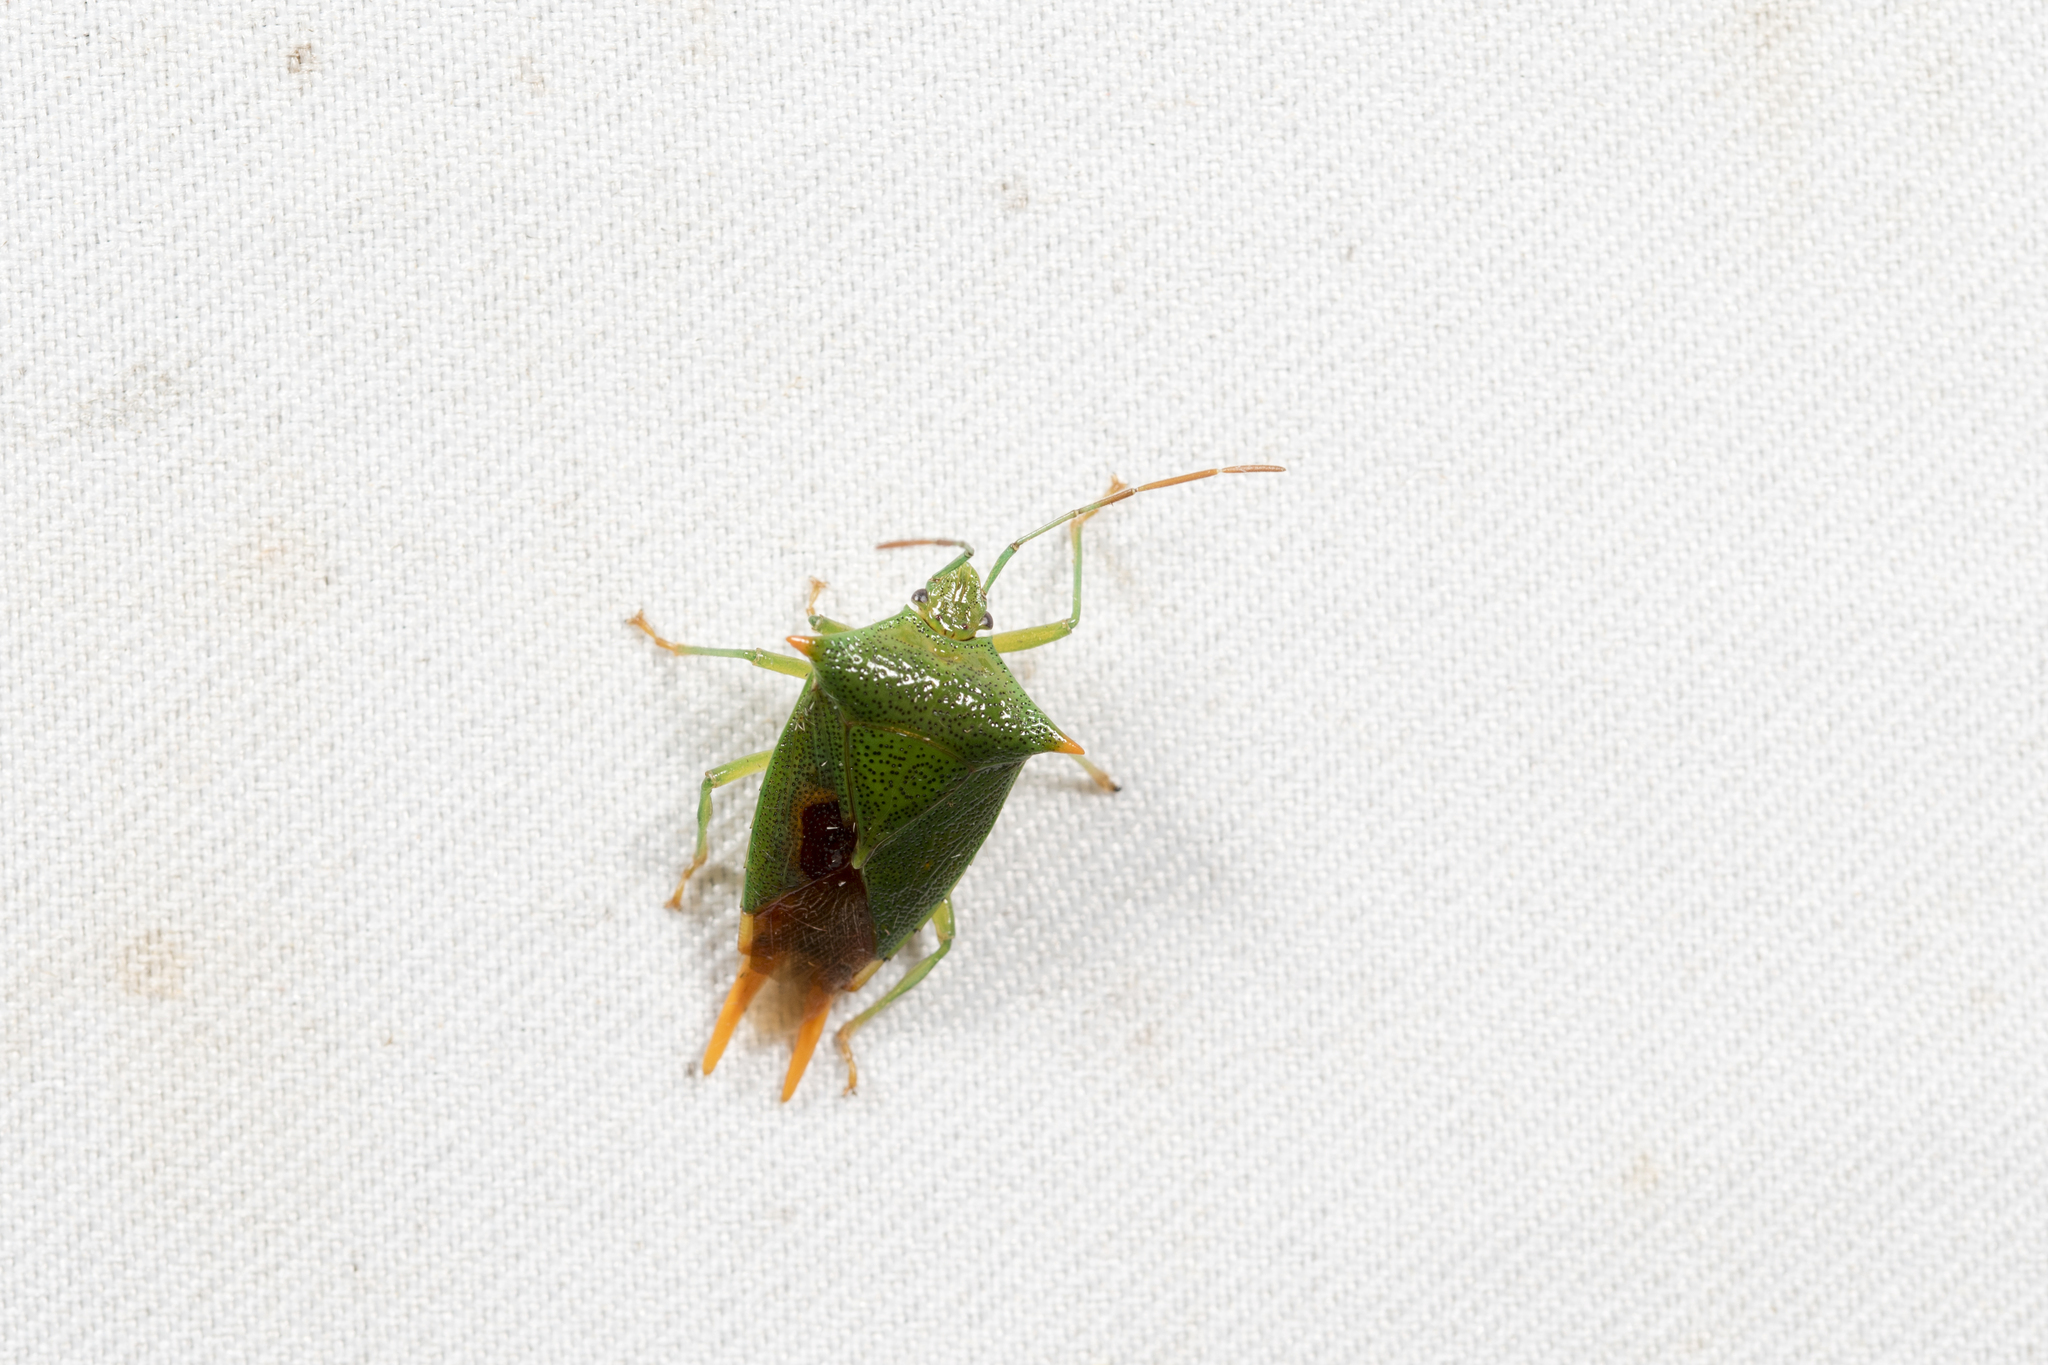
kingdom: Animalia
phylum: Arthropoda
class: Insecta
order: Hemiptera
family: Acanthosomatidae
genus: Acanthosoma
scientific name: Acanthosoma asahinai
